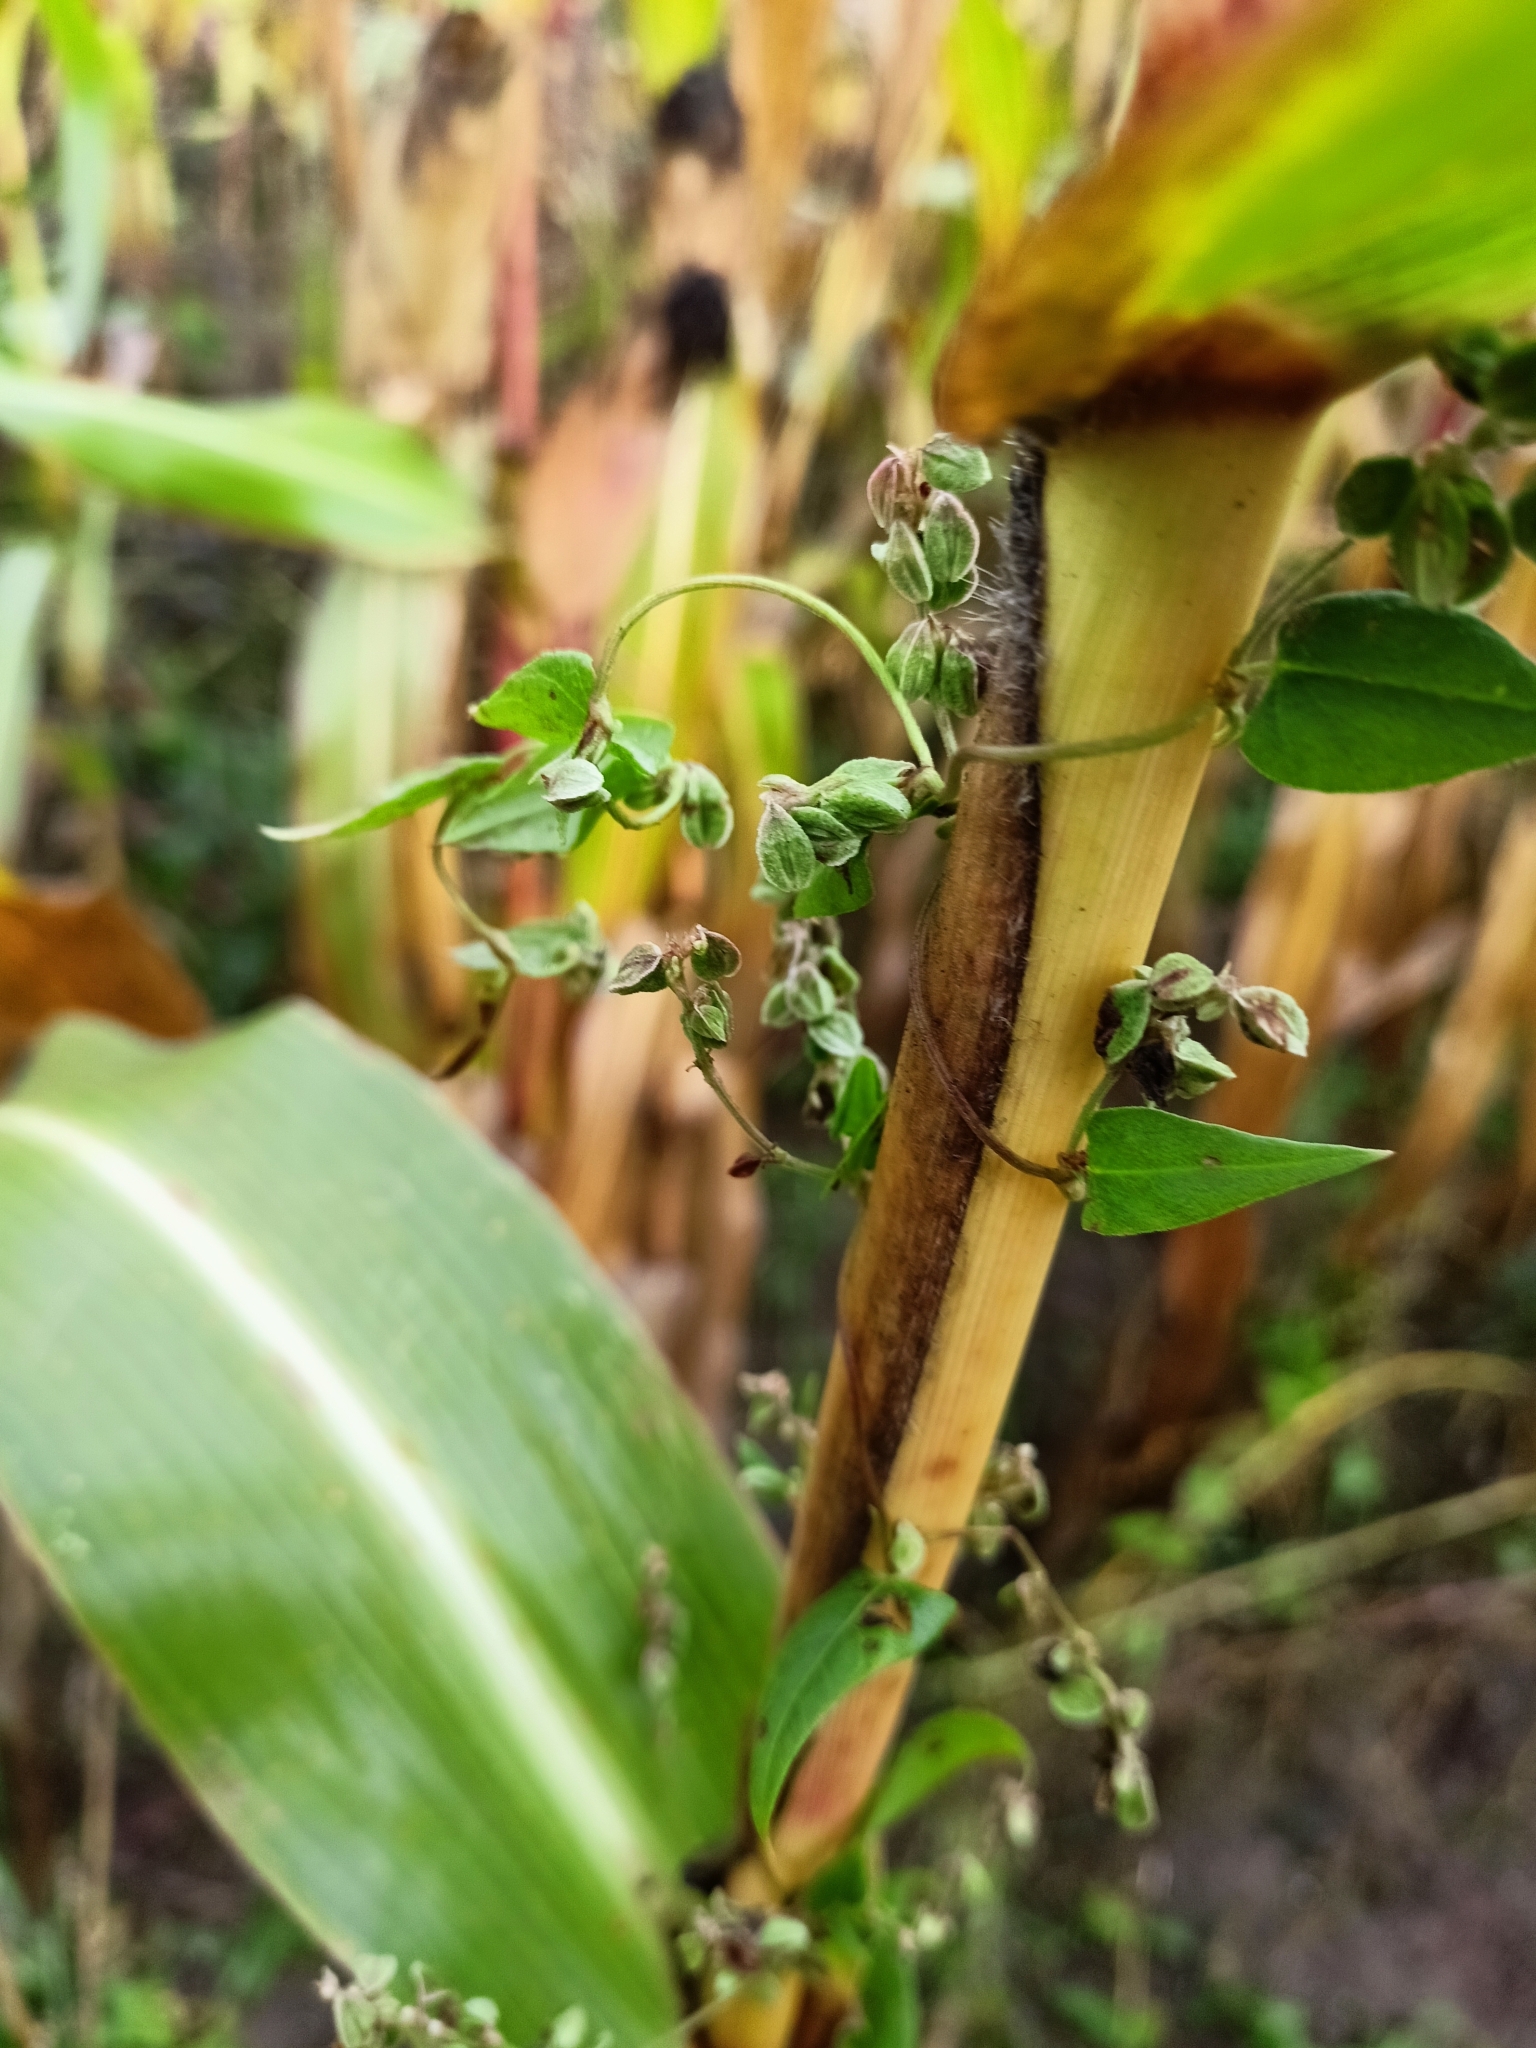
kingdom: Plantae
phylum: Tracheophyta
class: Magnoliopsida
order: Caryophyllales
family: Polygonaceae
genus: Fallopia
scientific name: Fallopia convolvulus
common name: Black bindweed
